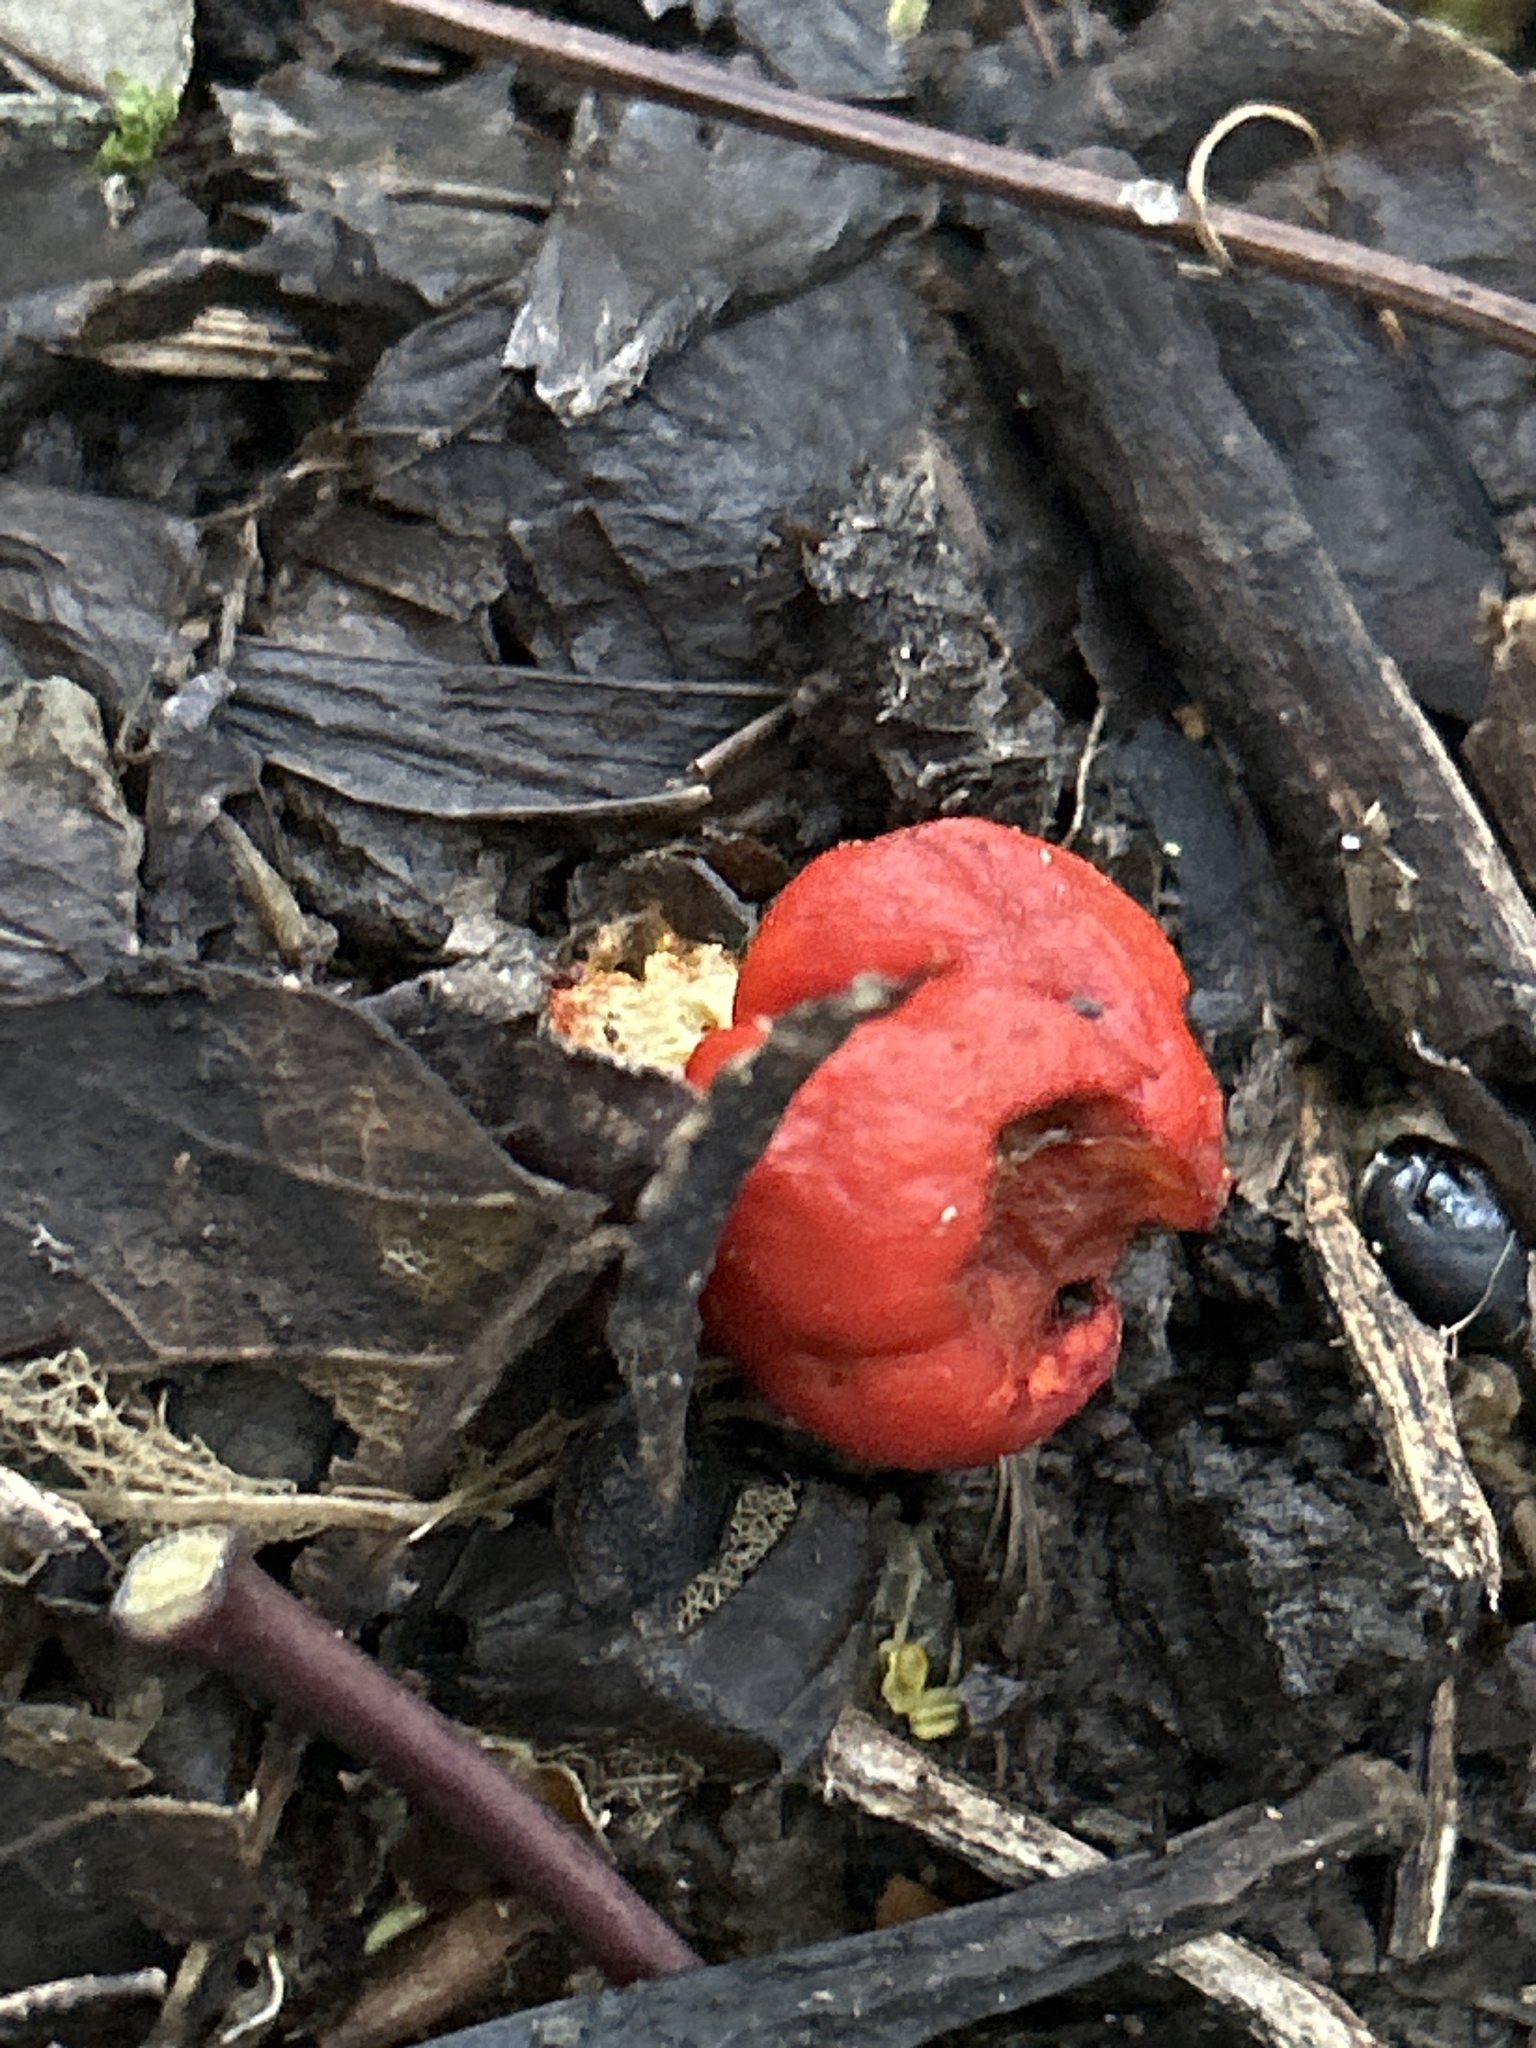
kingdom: Fungi
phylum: Basidiomycota
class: Agaricomycetes
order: Agaricales
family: Strophariaceae
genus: Leratiomyces
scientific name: Leratiomyces erythrocephalus
